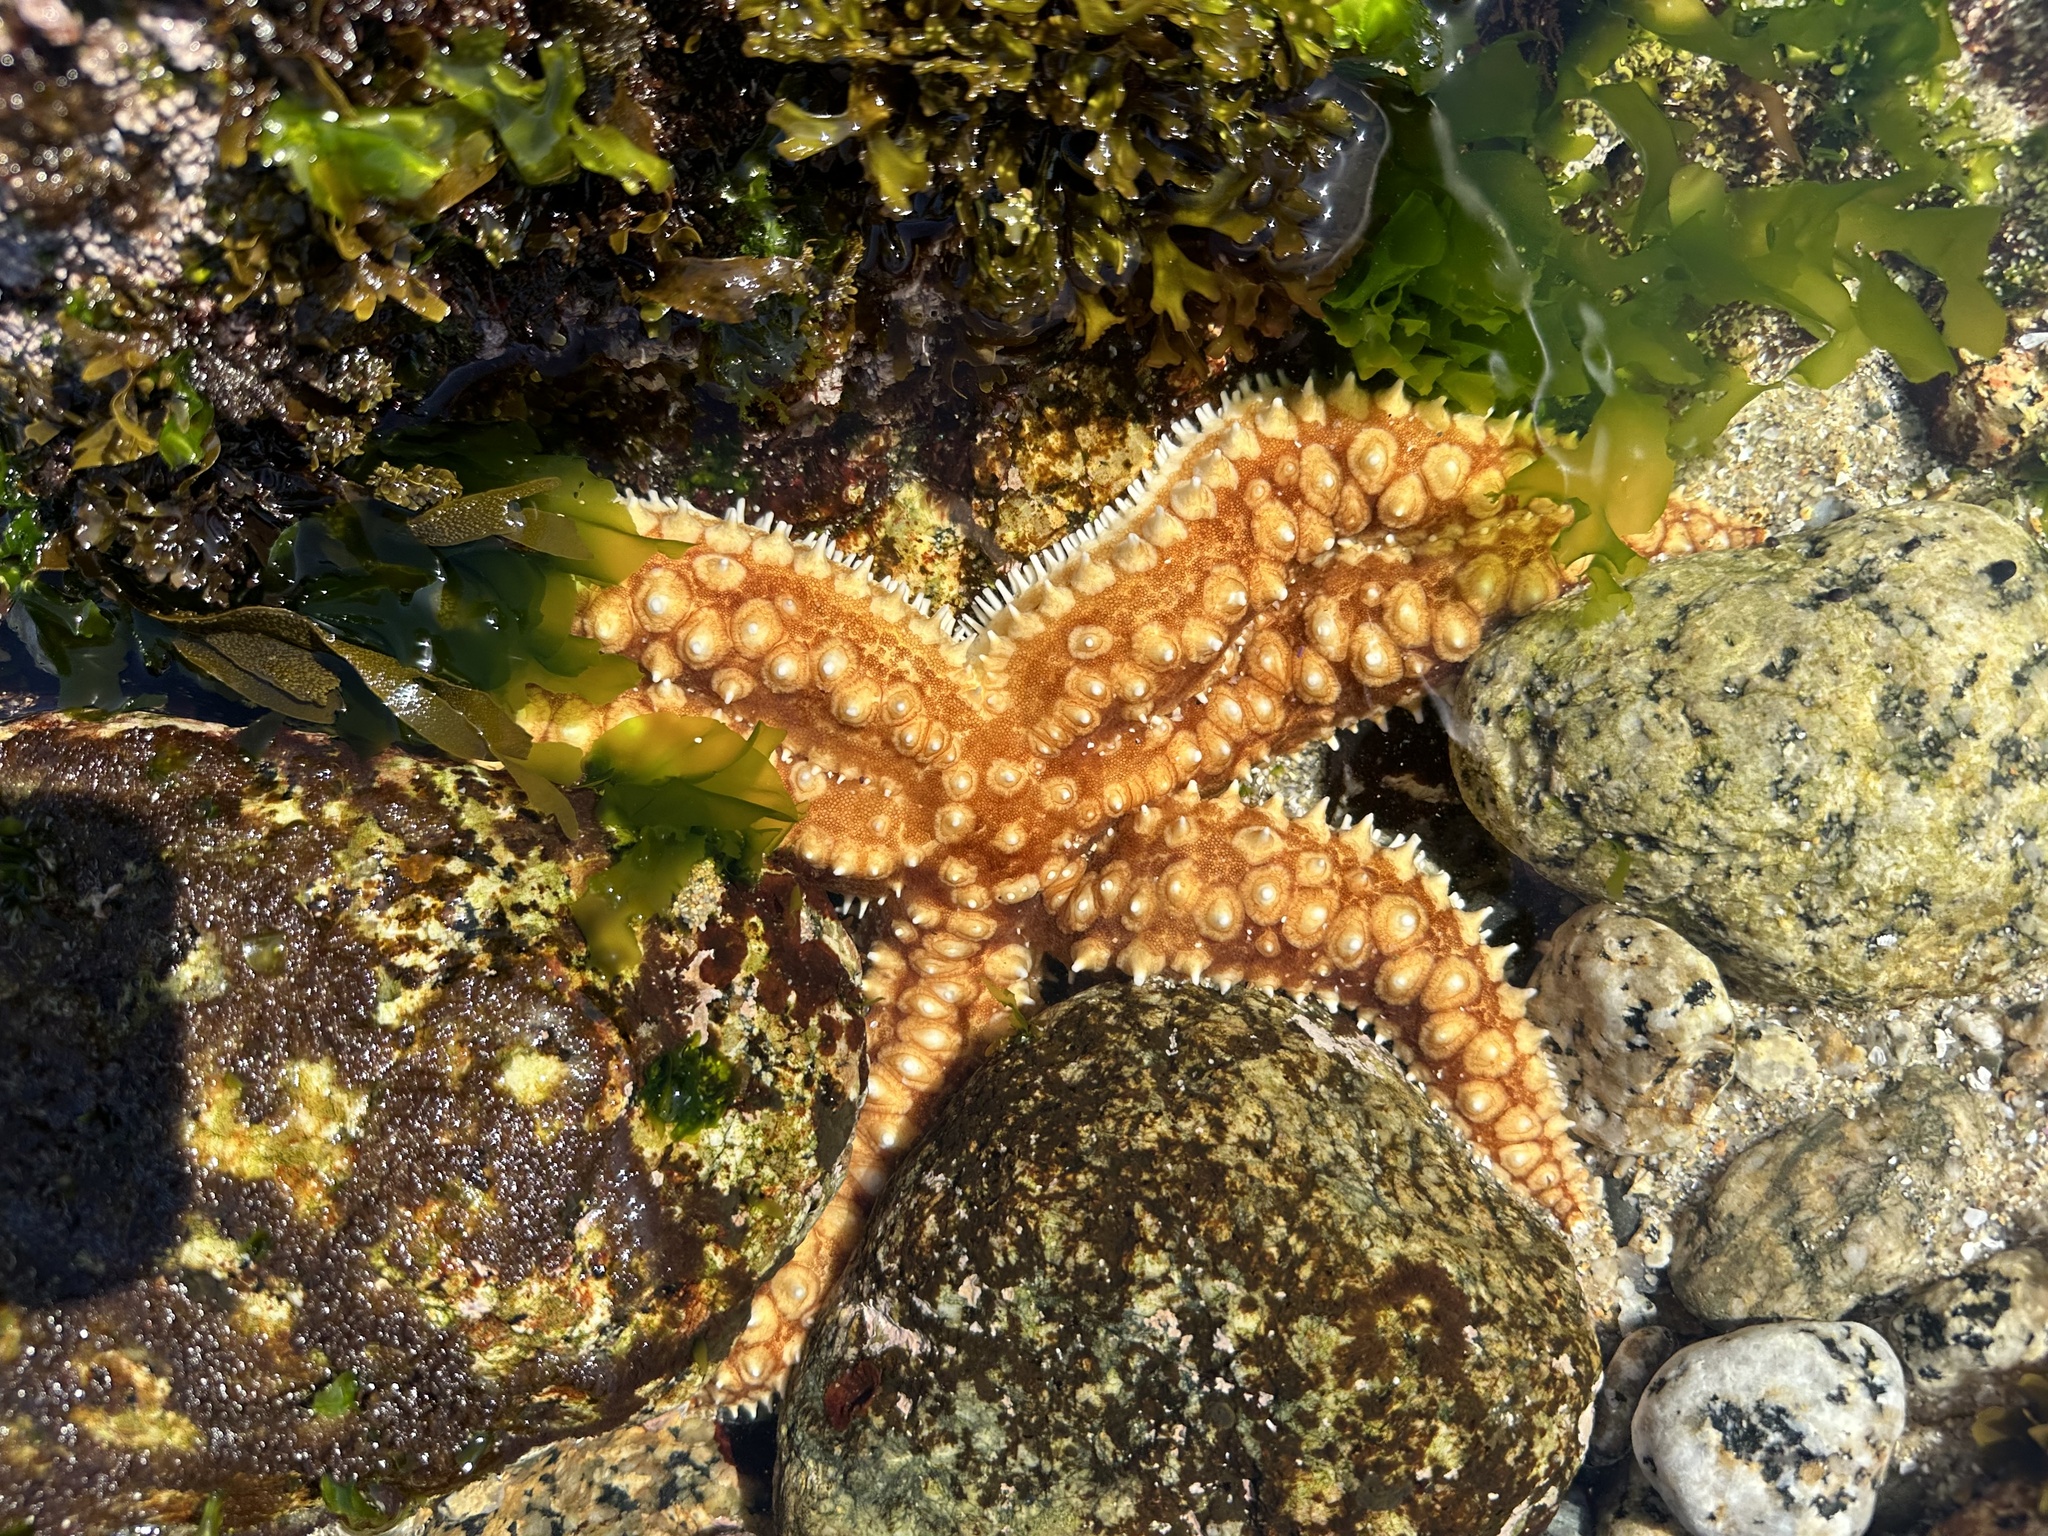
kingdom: Animalia
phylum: Echinodermata
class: Asteroidea
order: Forcipulatida
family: Asteriidae
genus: Meyenaster
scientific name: Meyenaster gelatinosus
